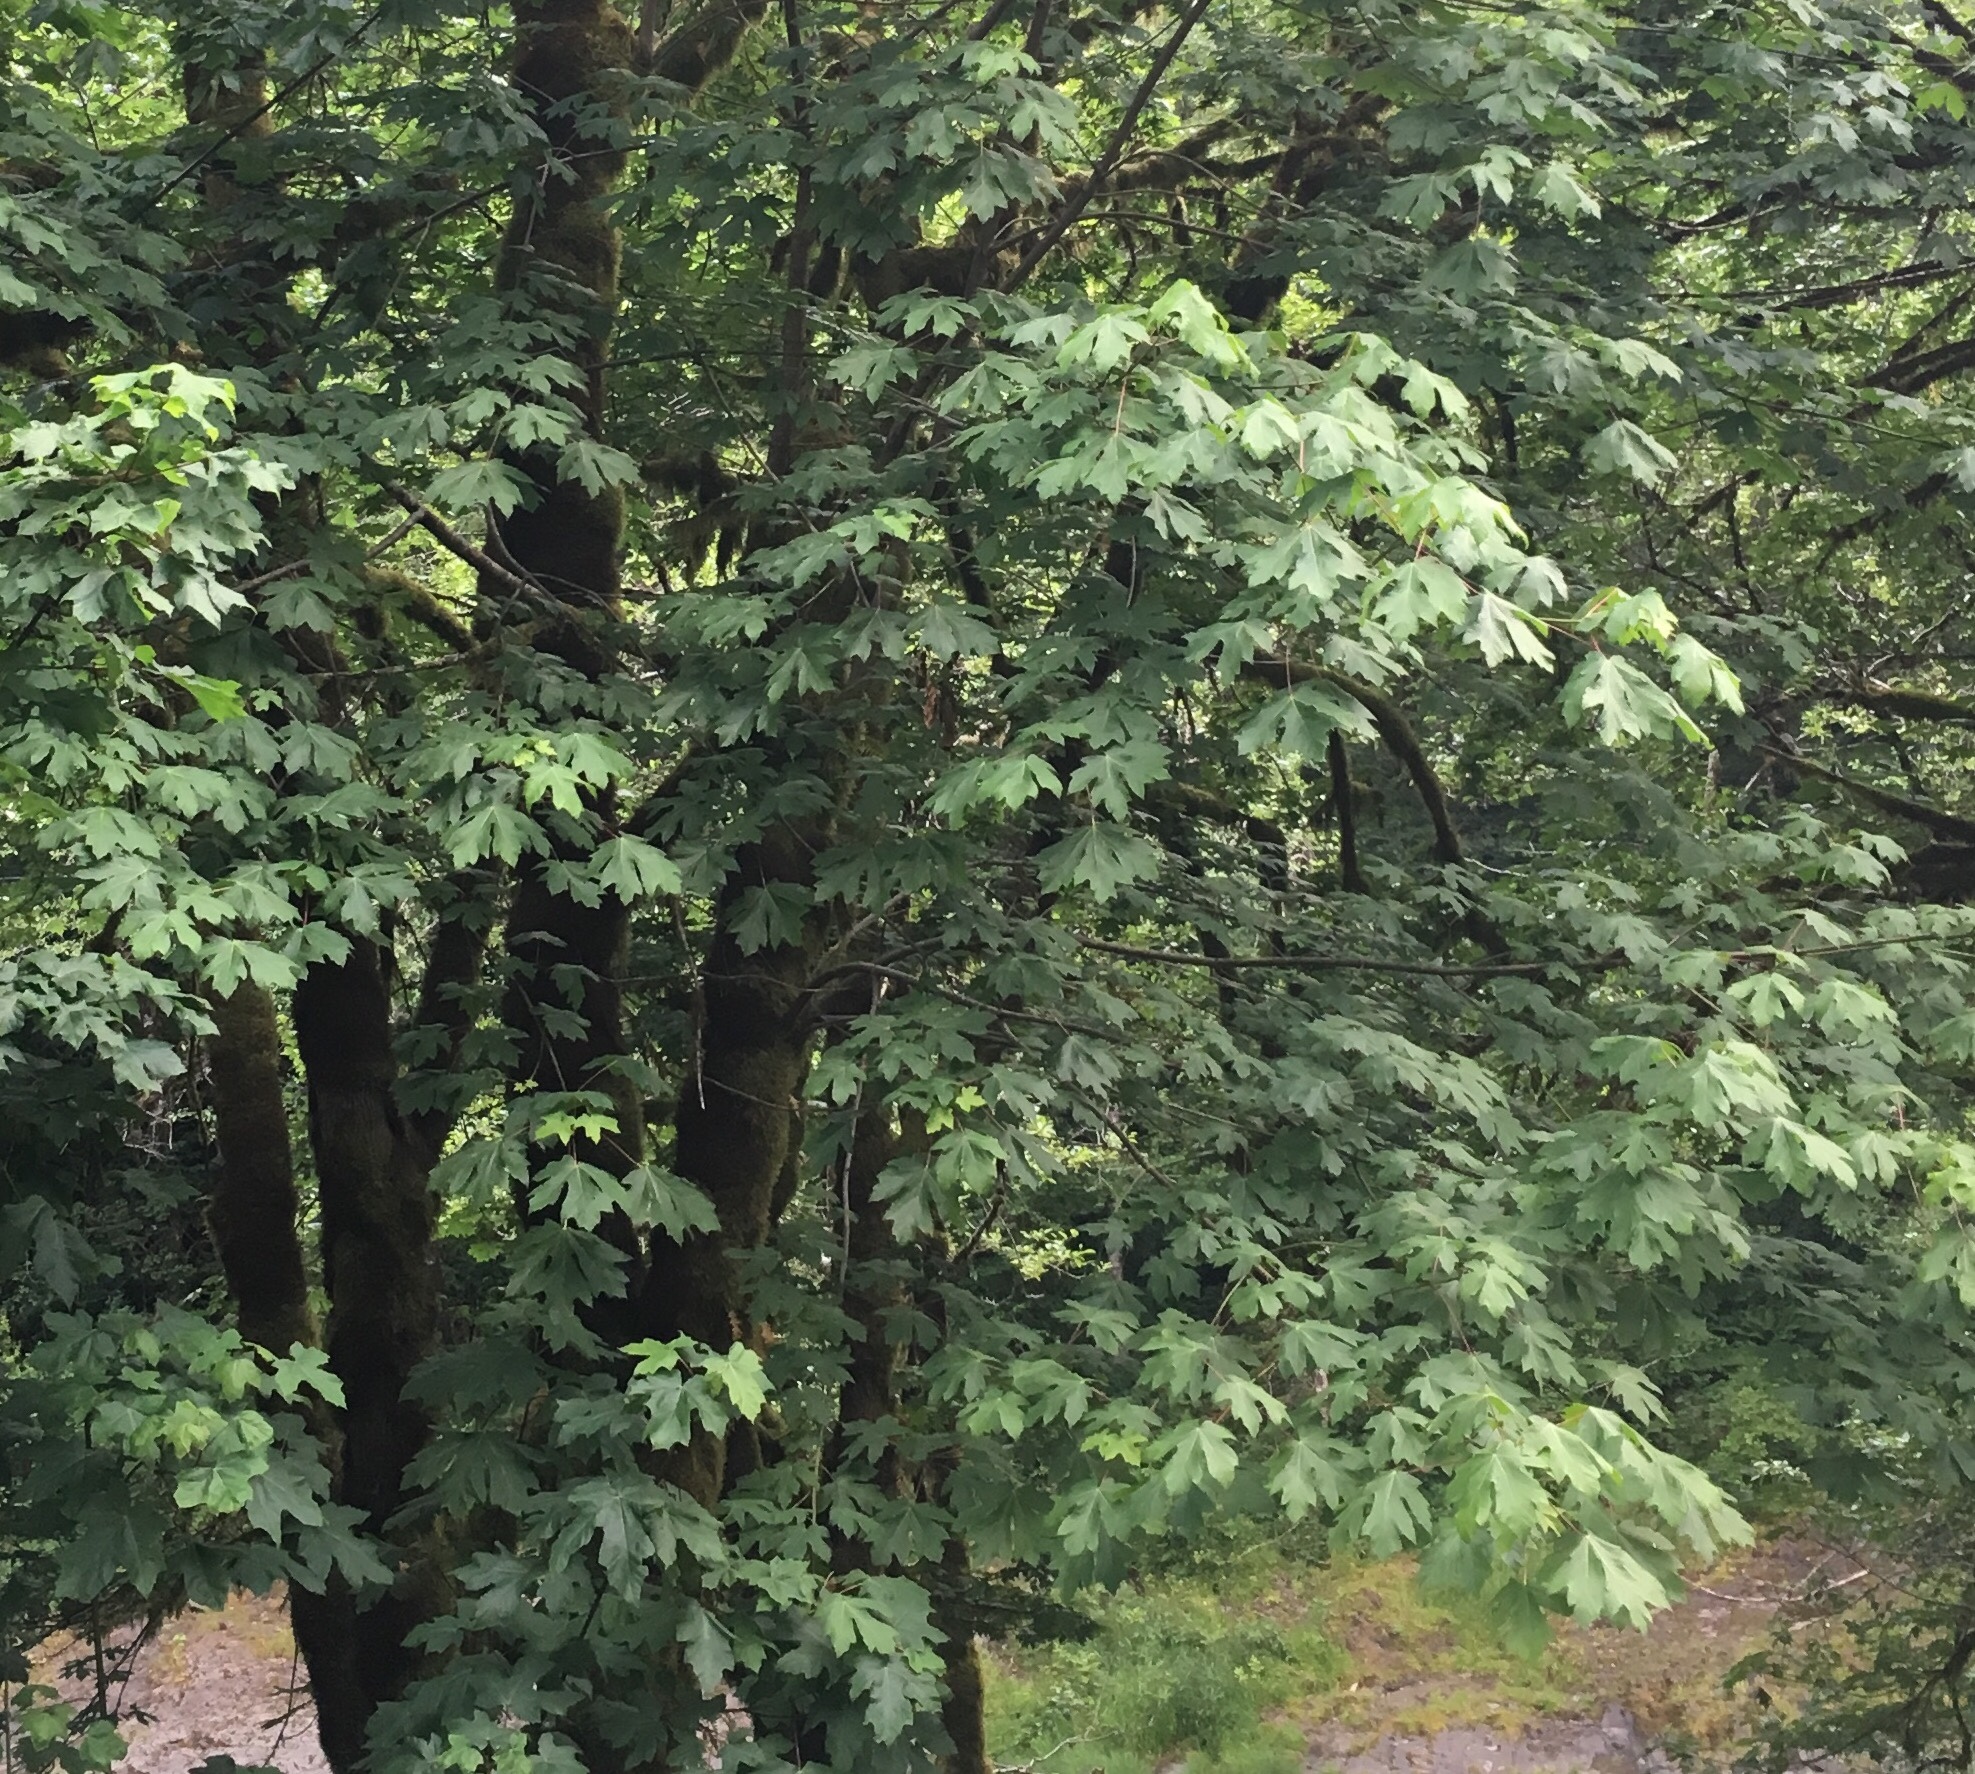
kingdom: Plantae
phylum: Tracheophyta
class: Magnoliopsida
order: Sapindales
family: Sapindaceae
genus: Acer
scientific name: Acer macrophyllum
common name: Oregon maple
